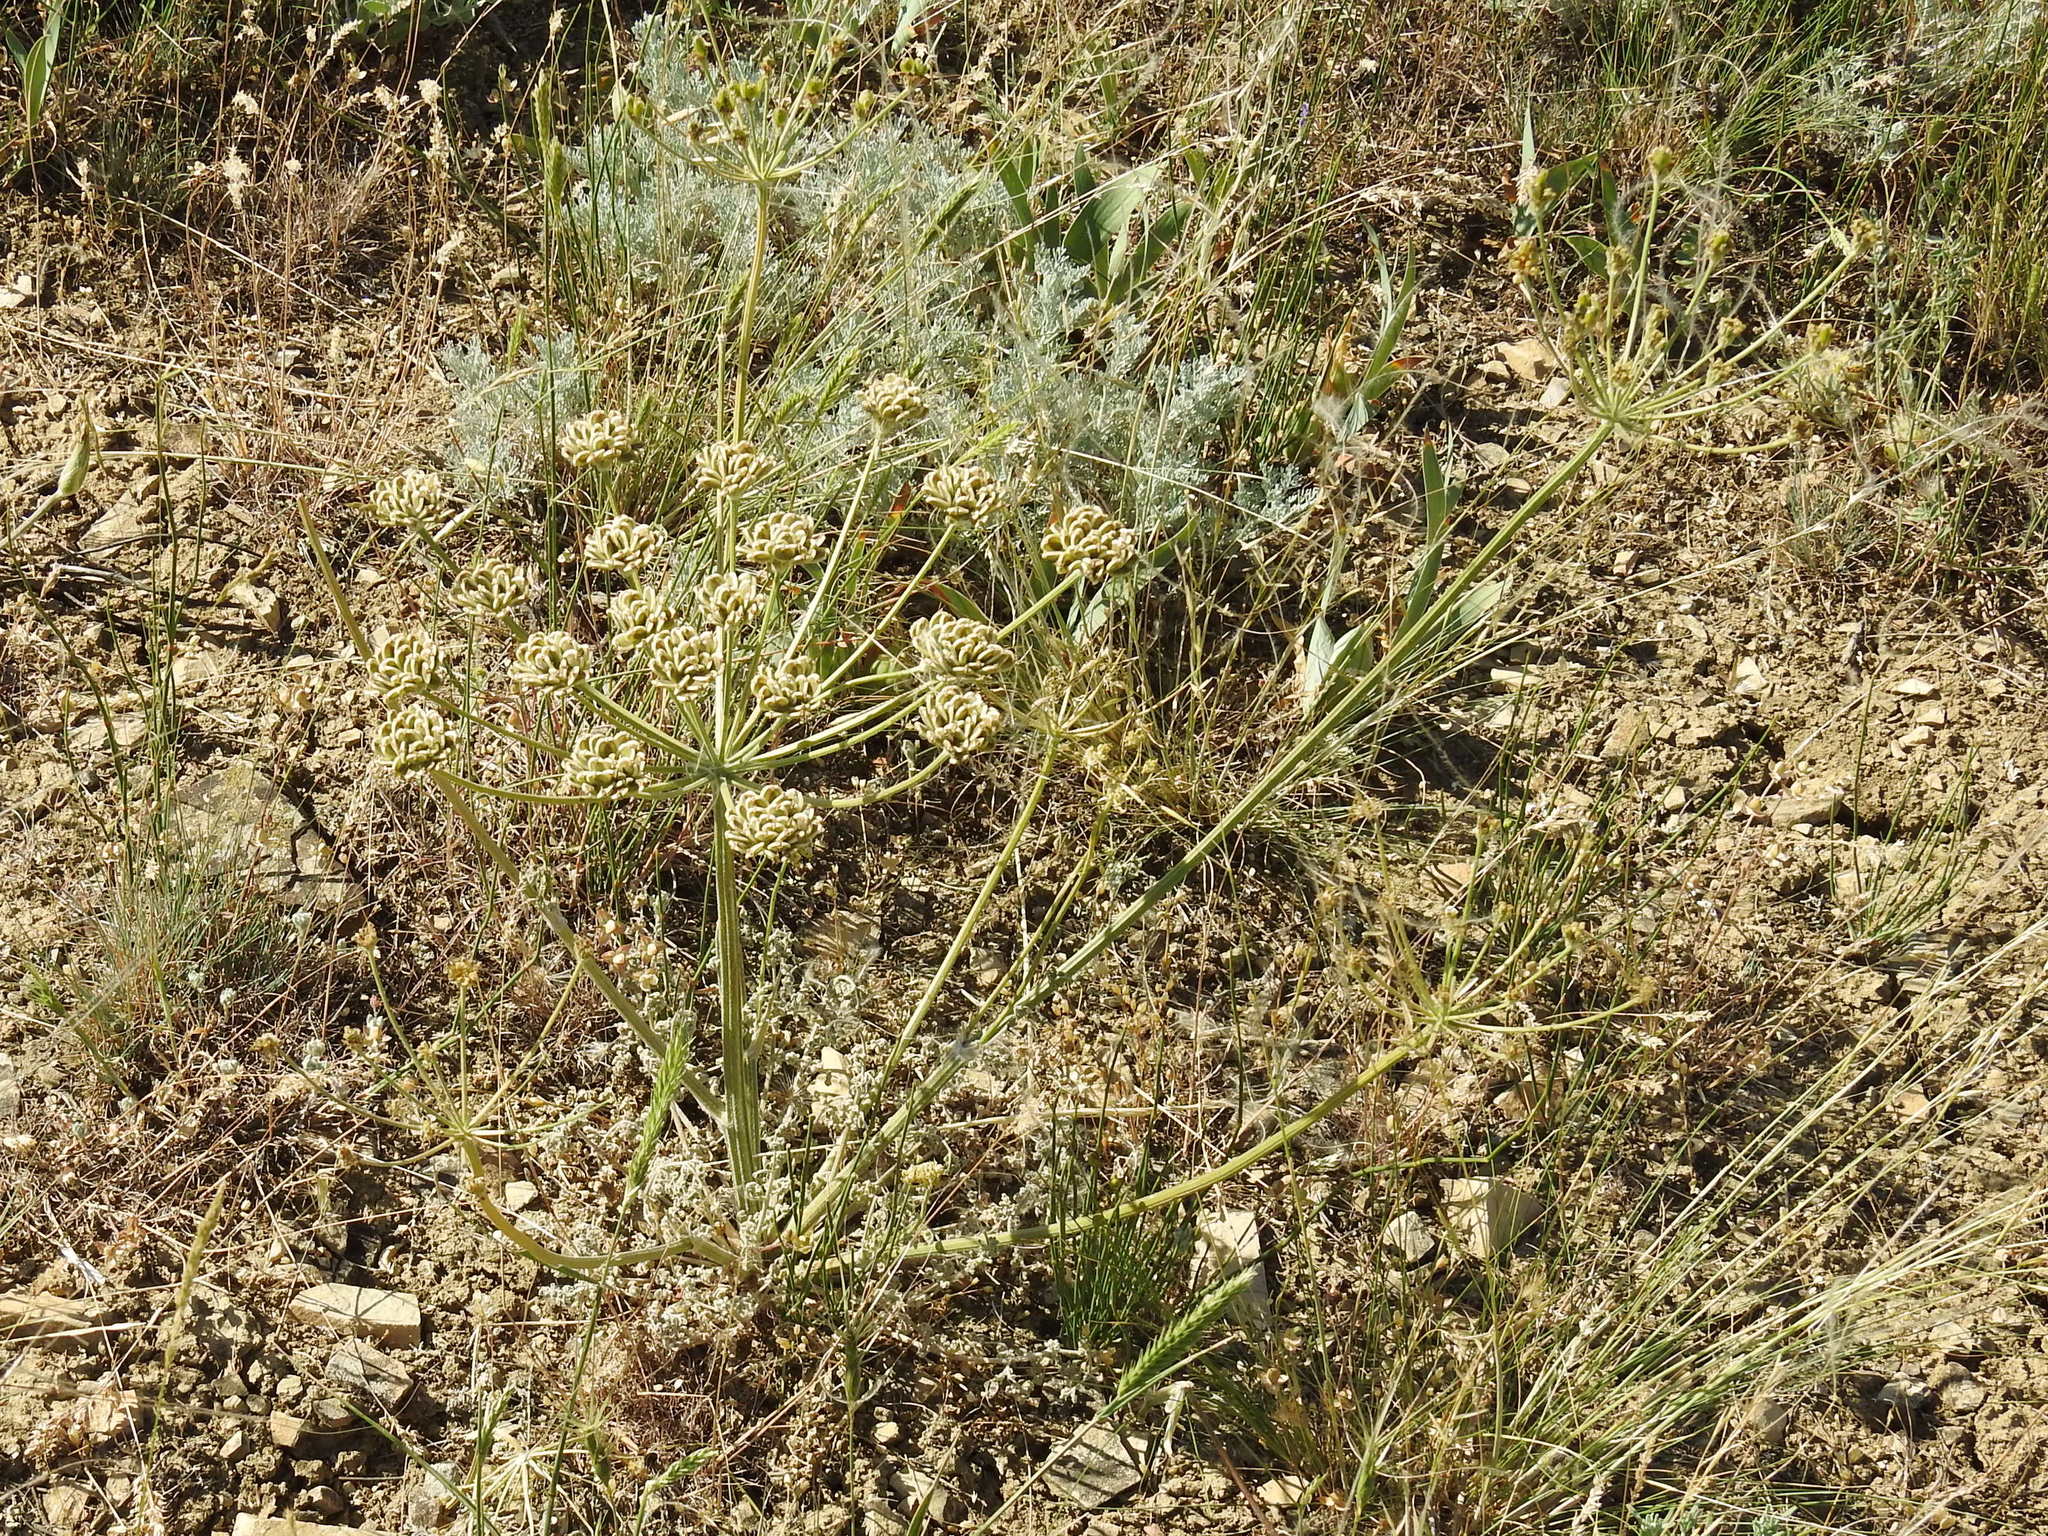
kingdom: Plantae
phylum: Tracheophyta
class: Magnoliopsida
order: Apiales
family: Apiaceae
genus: Zosima
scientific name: Zosima absinthiifolia
